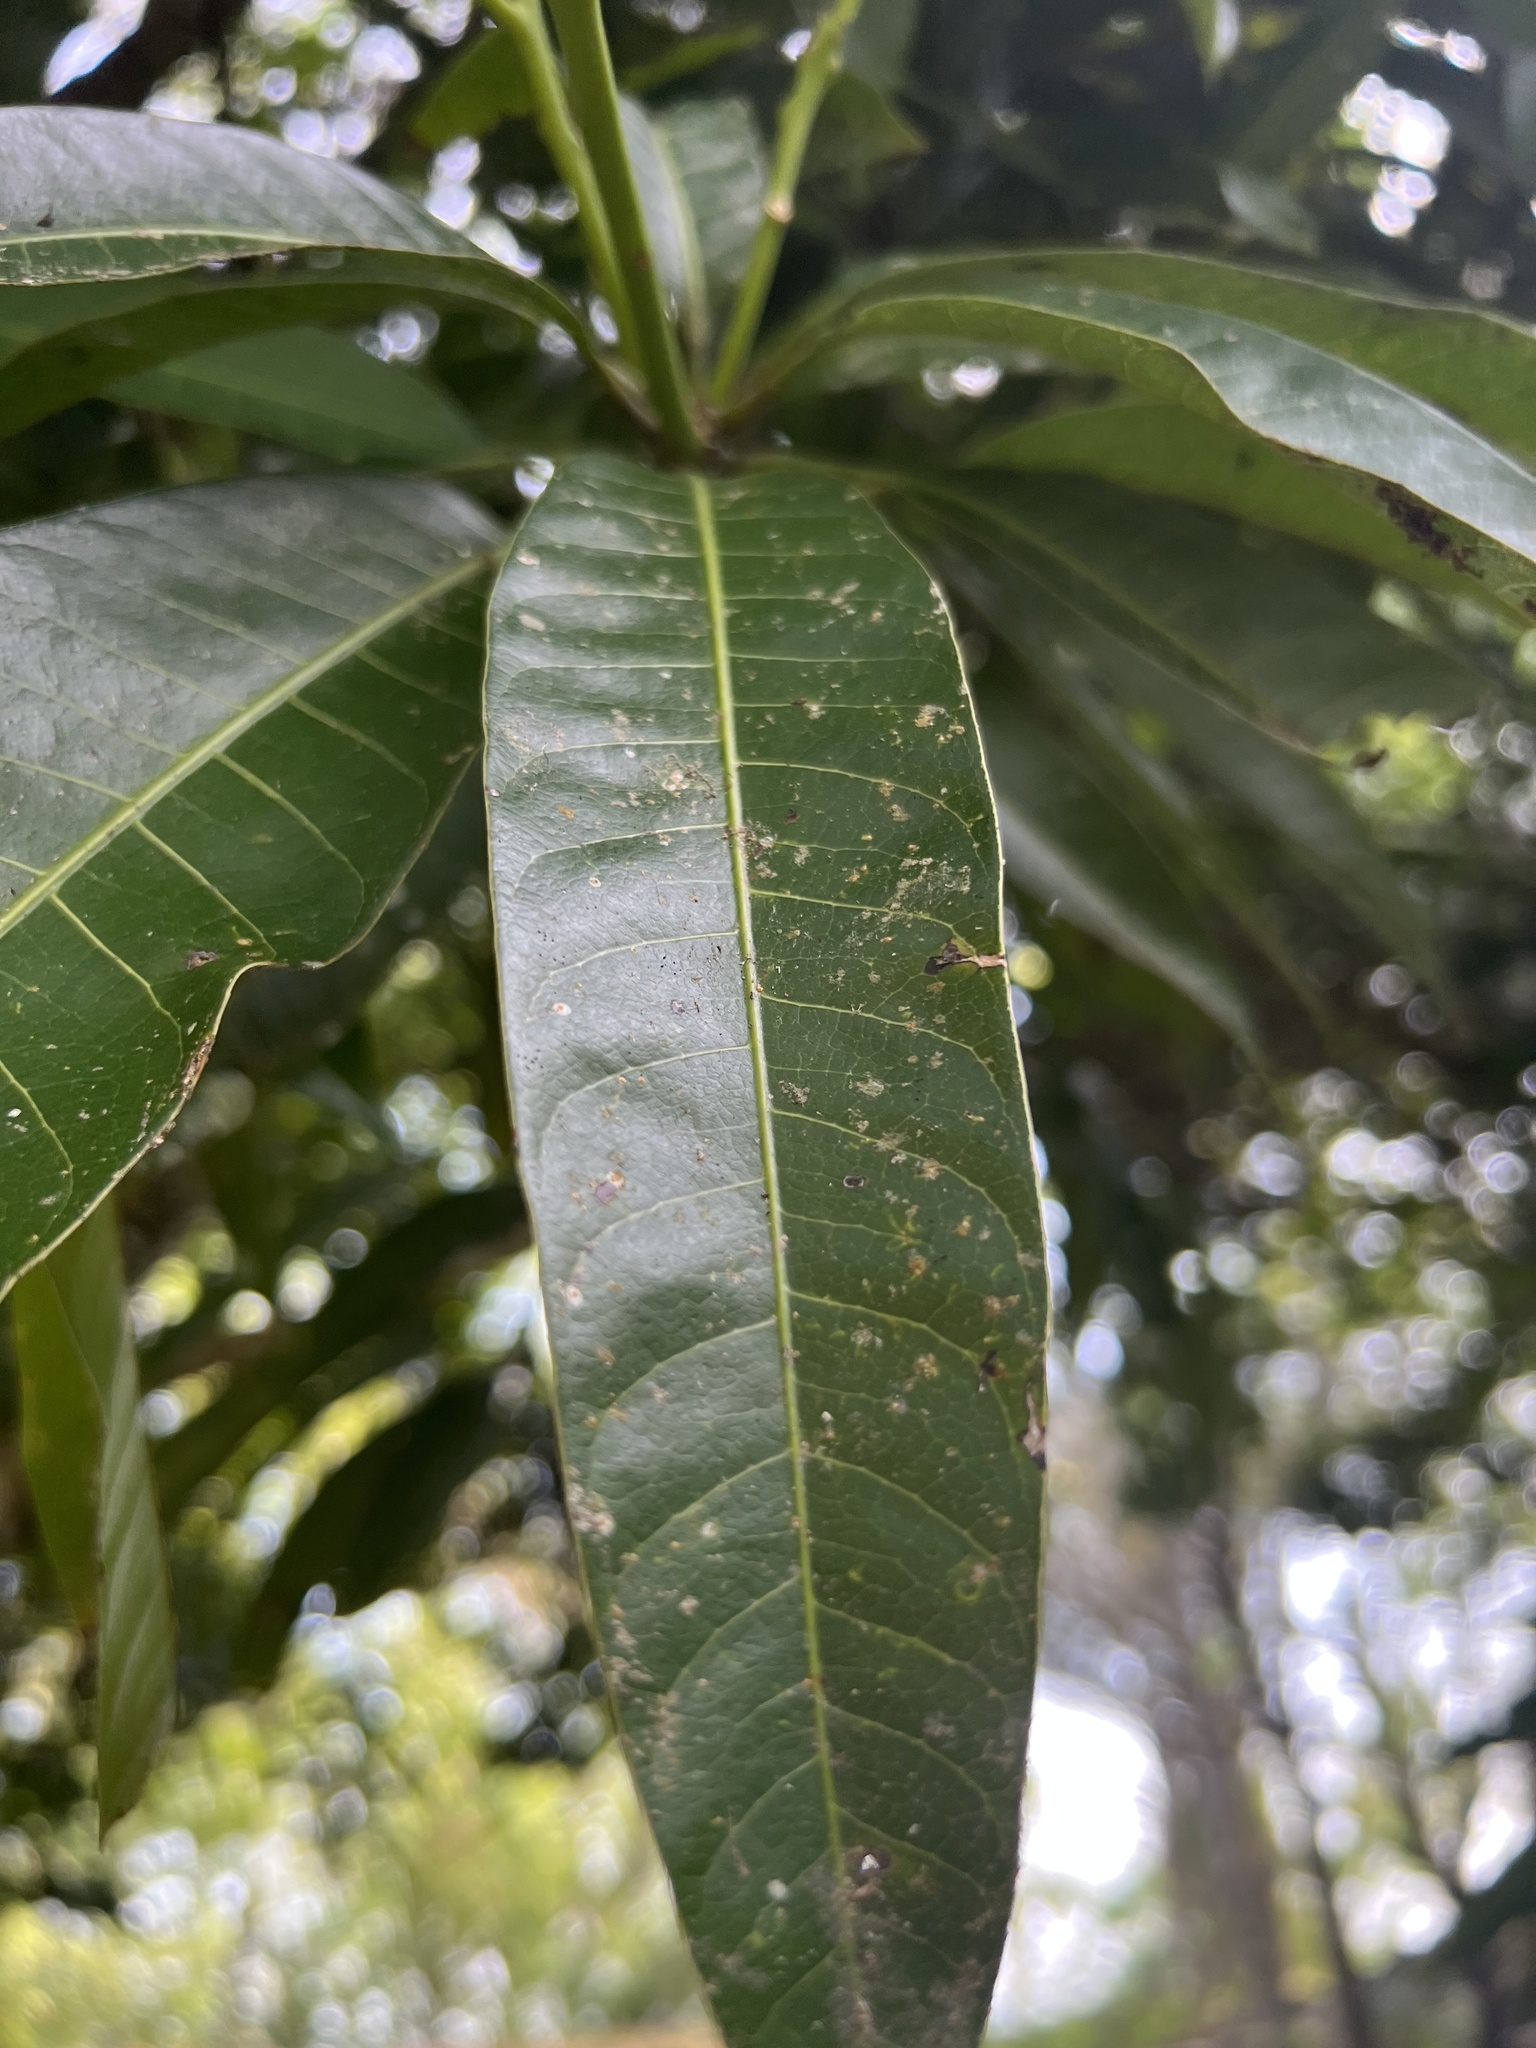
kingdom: Plantae
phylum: Tracheophyta
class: Magnoliopsida
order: Sapindales
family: Anacardiaceae
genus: Mangifera
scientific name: Mangifera indica
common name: Mango
